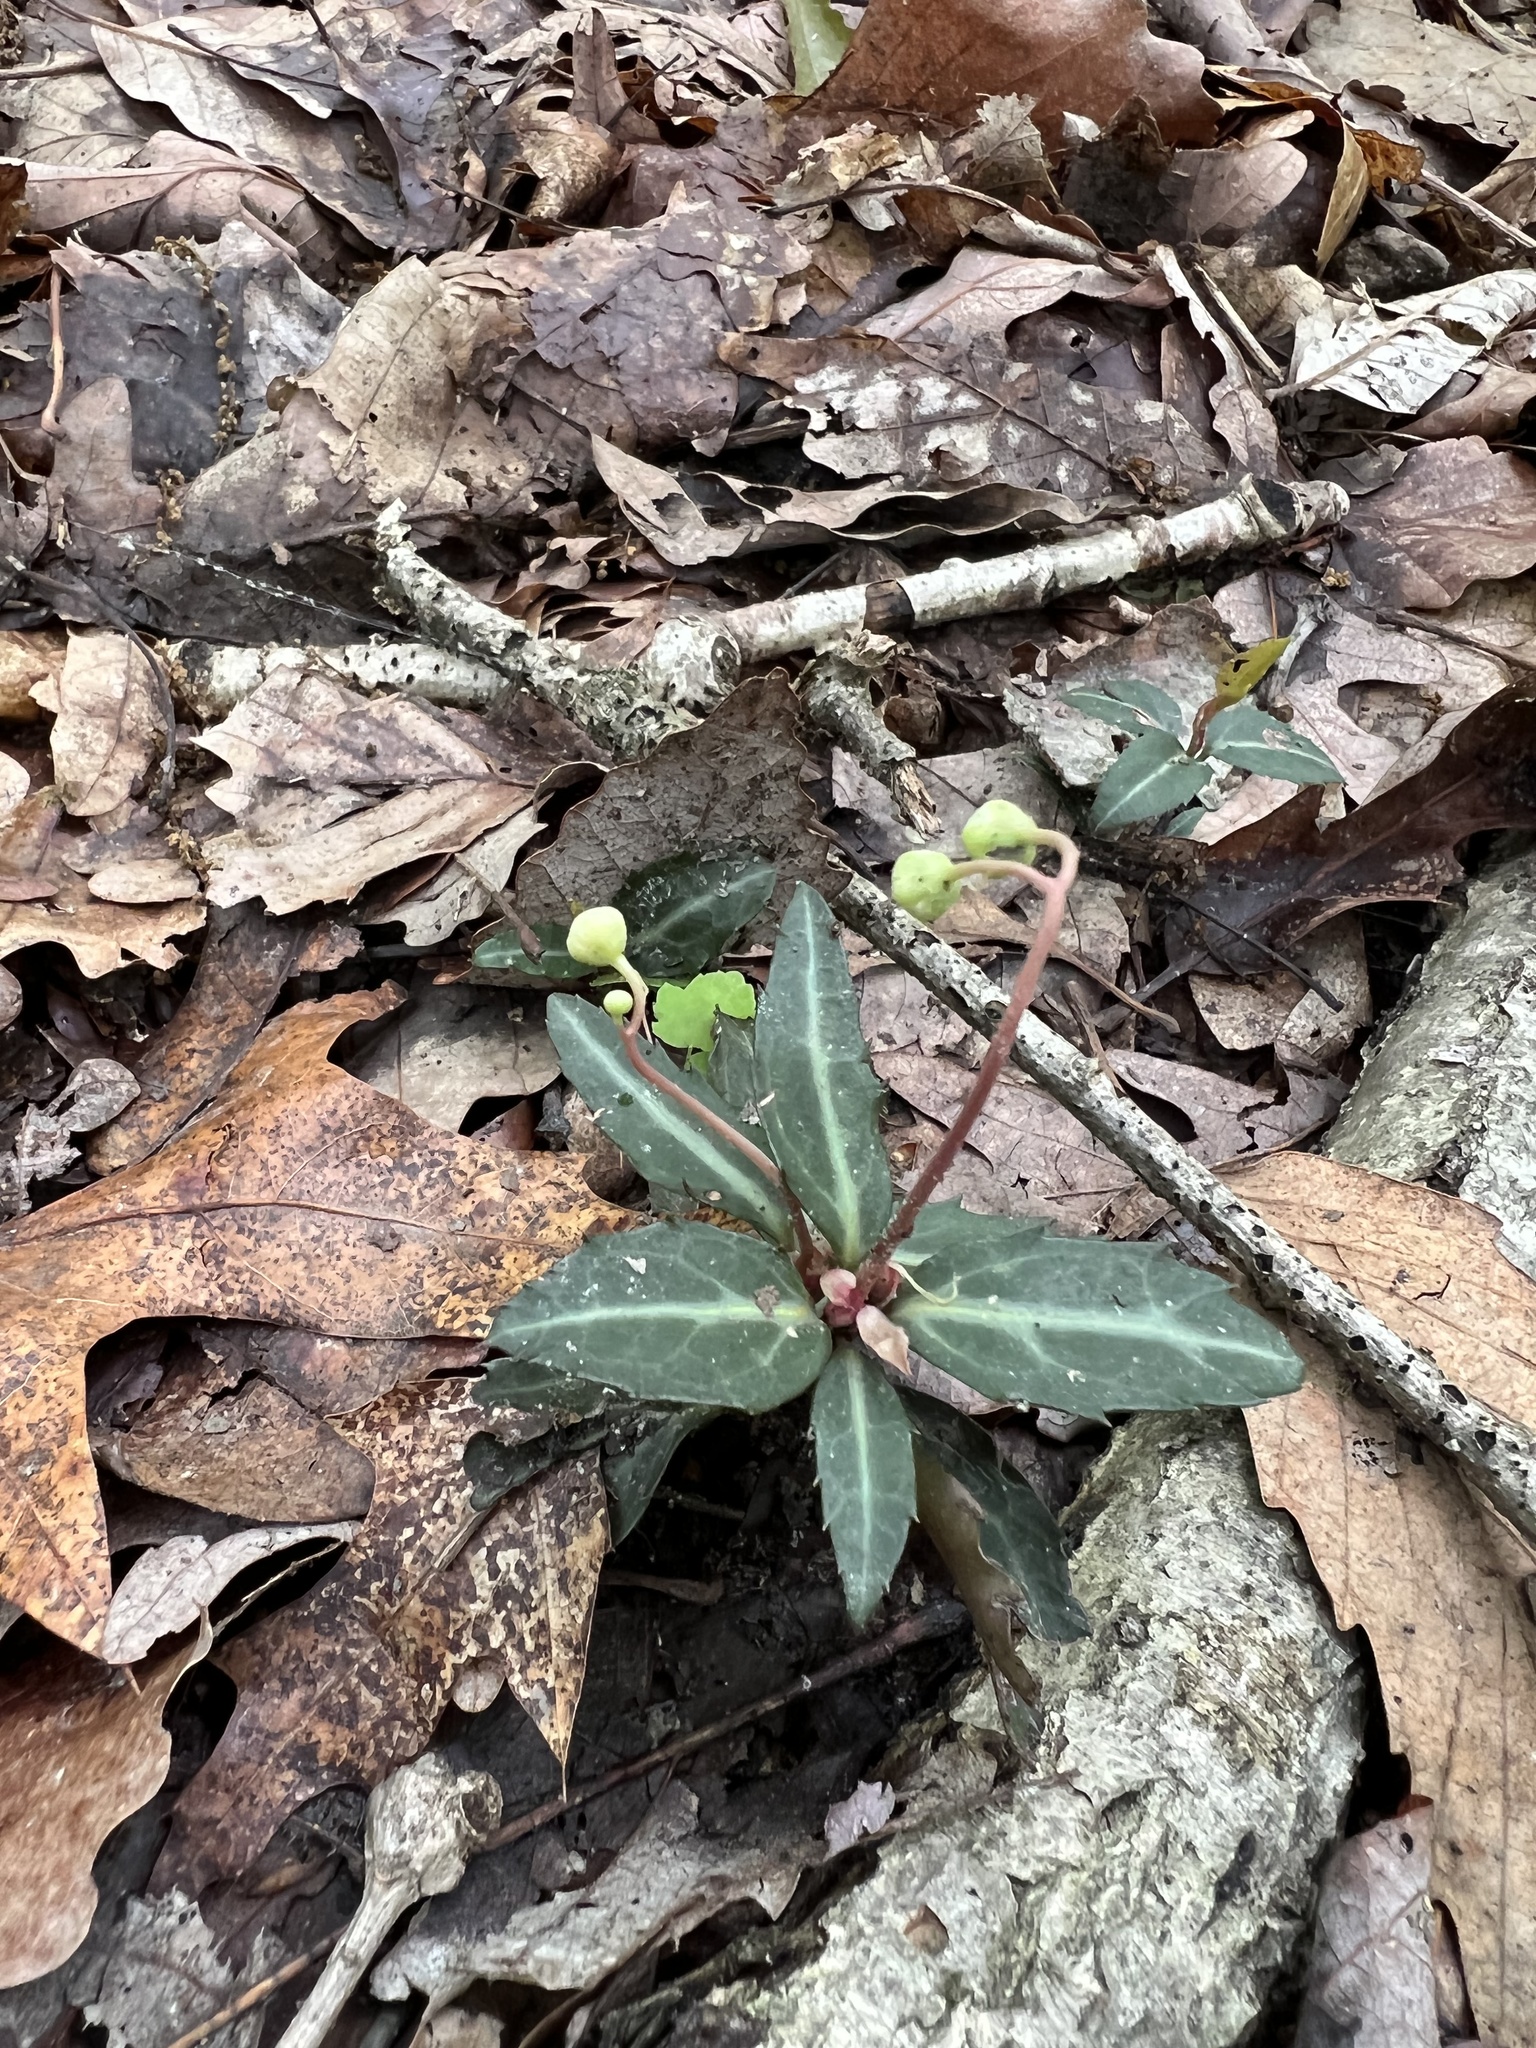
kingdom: Plantae
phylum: Tracheophyta
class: Magnoliopsida
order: Ericales
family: Ericaceae
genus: Chimaphila
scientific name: Chimaphila maculata
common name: Spotted pipsissewa
